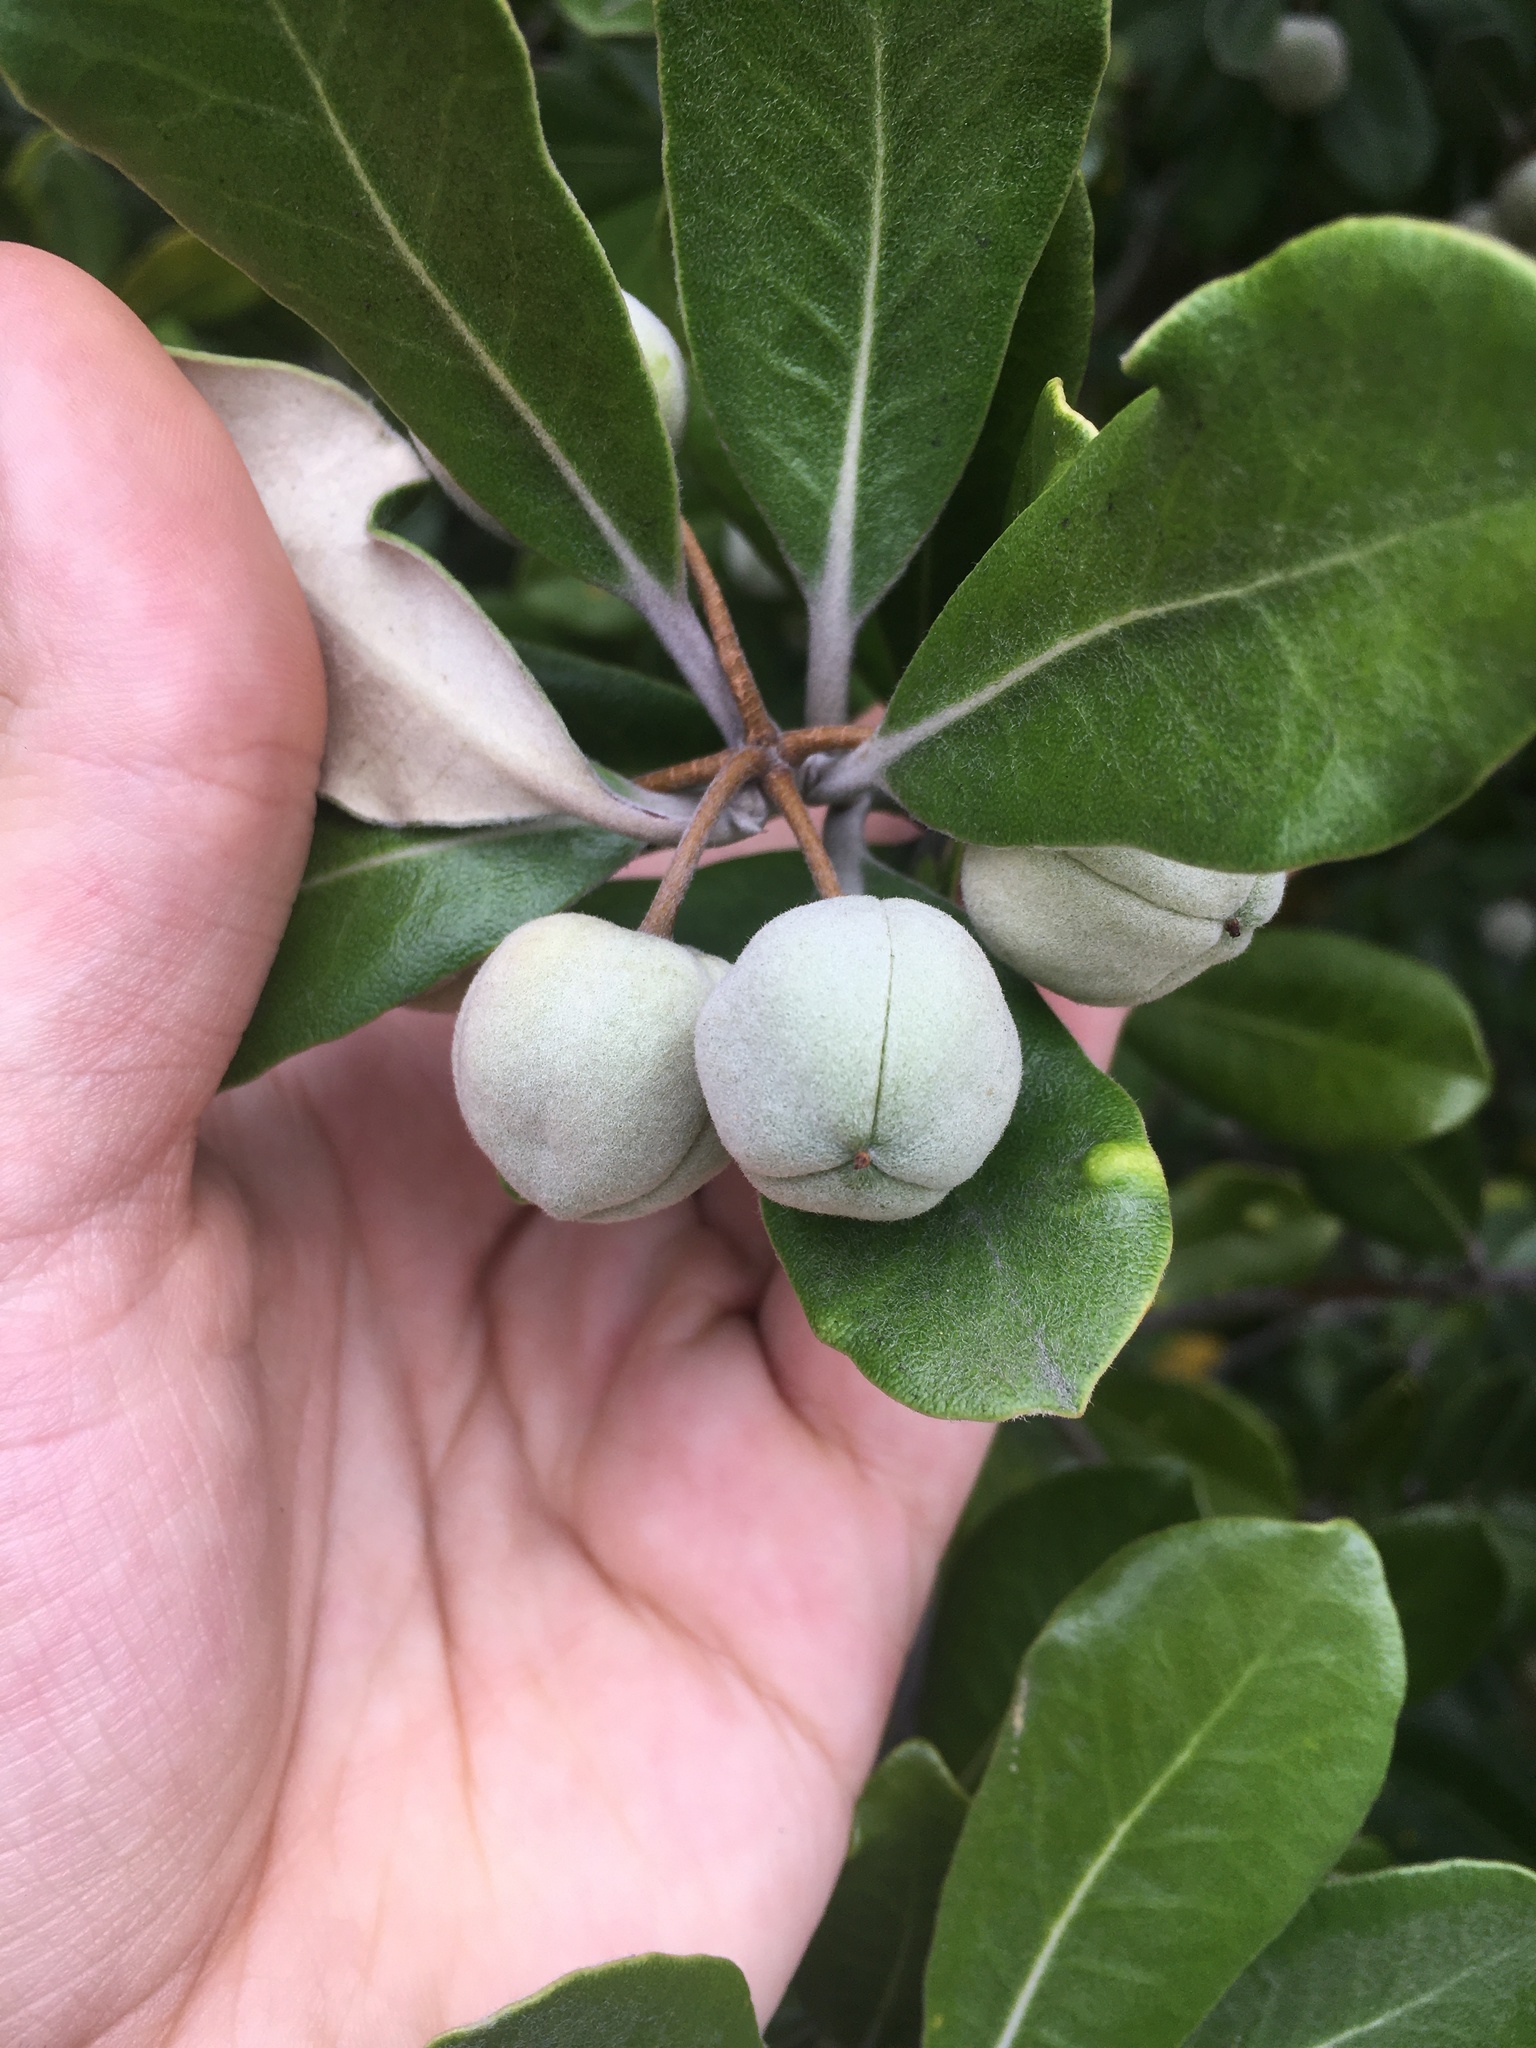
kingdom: Plantae
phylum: Tracheophyta
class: Magnoliopsida
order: Apiales
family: Pittosporaceae
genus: Pittosporum
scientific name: Pittosporum crassifolium
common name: Karo
